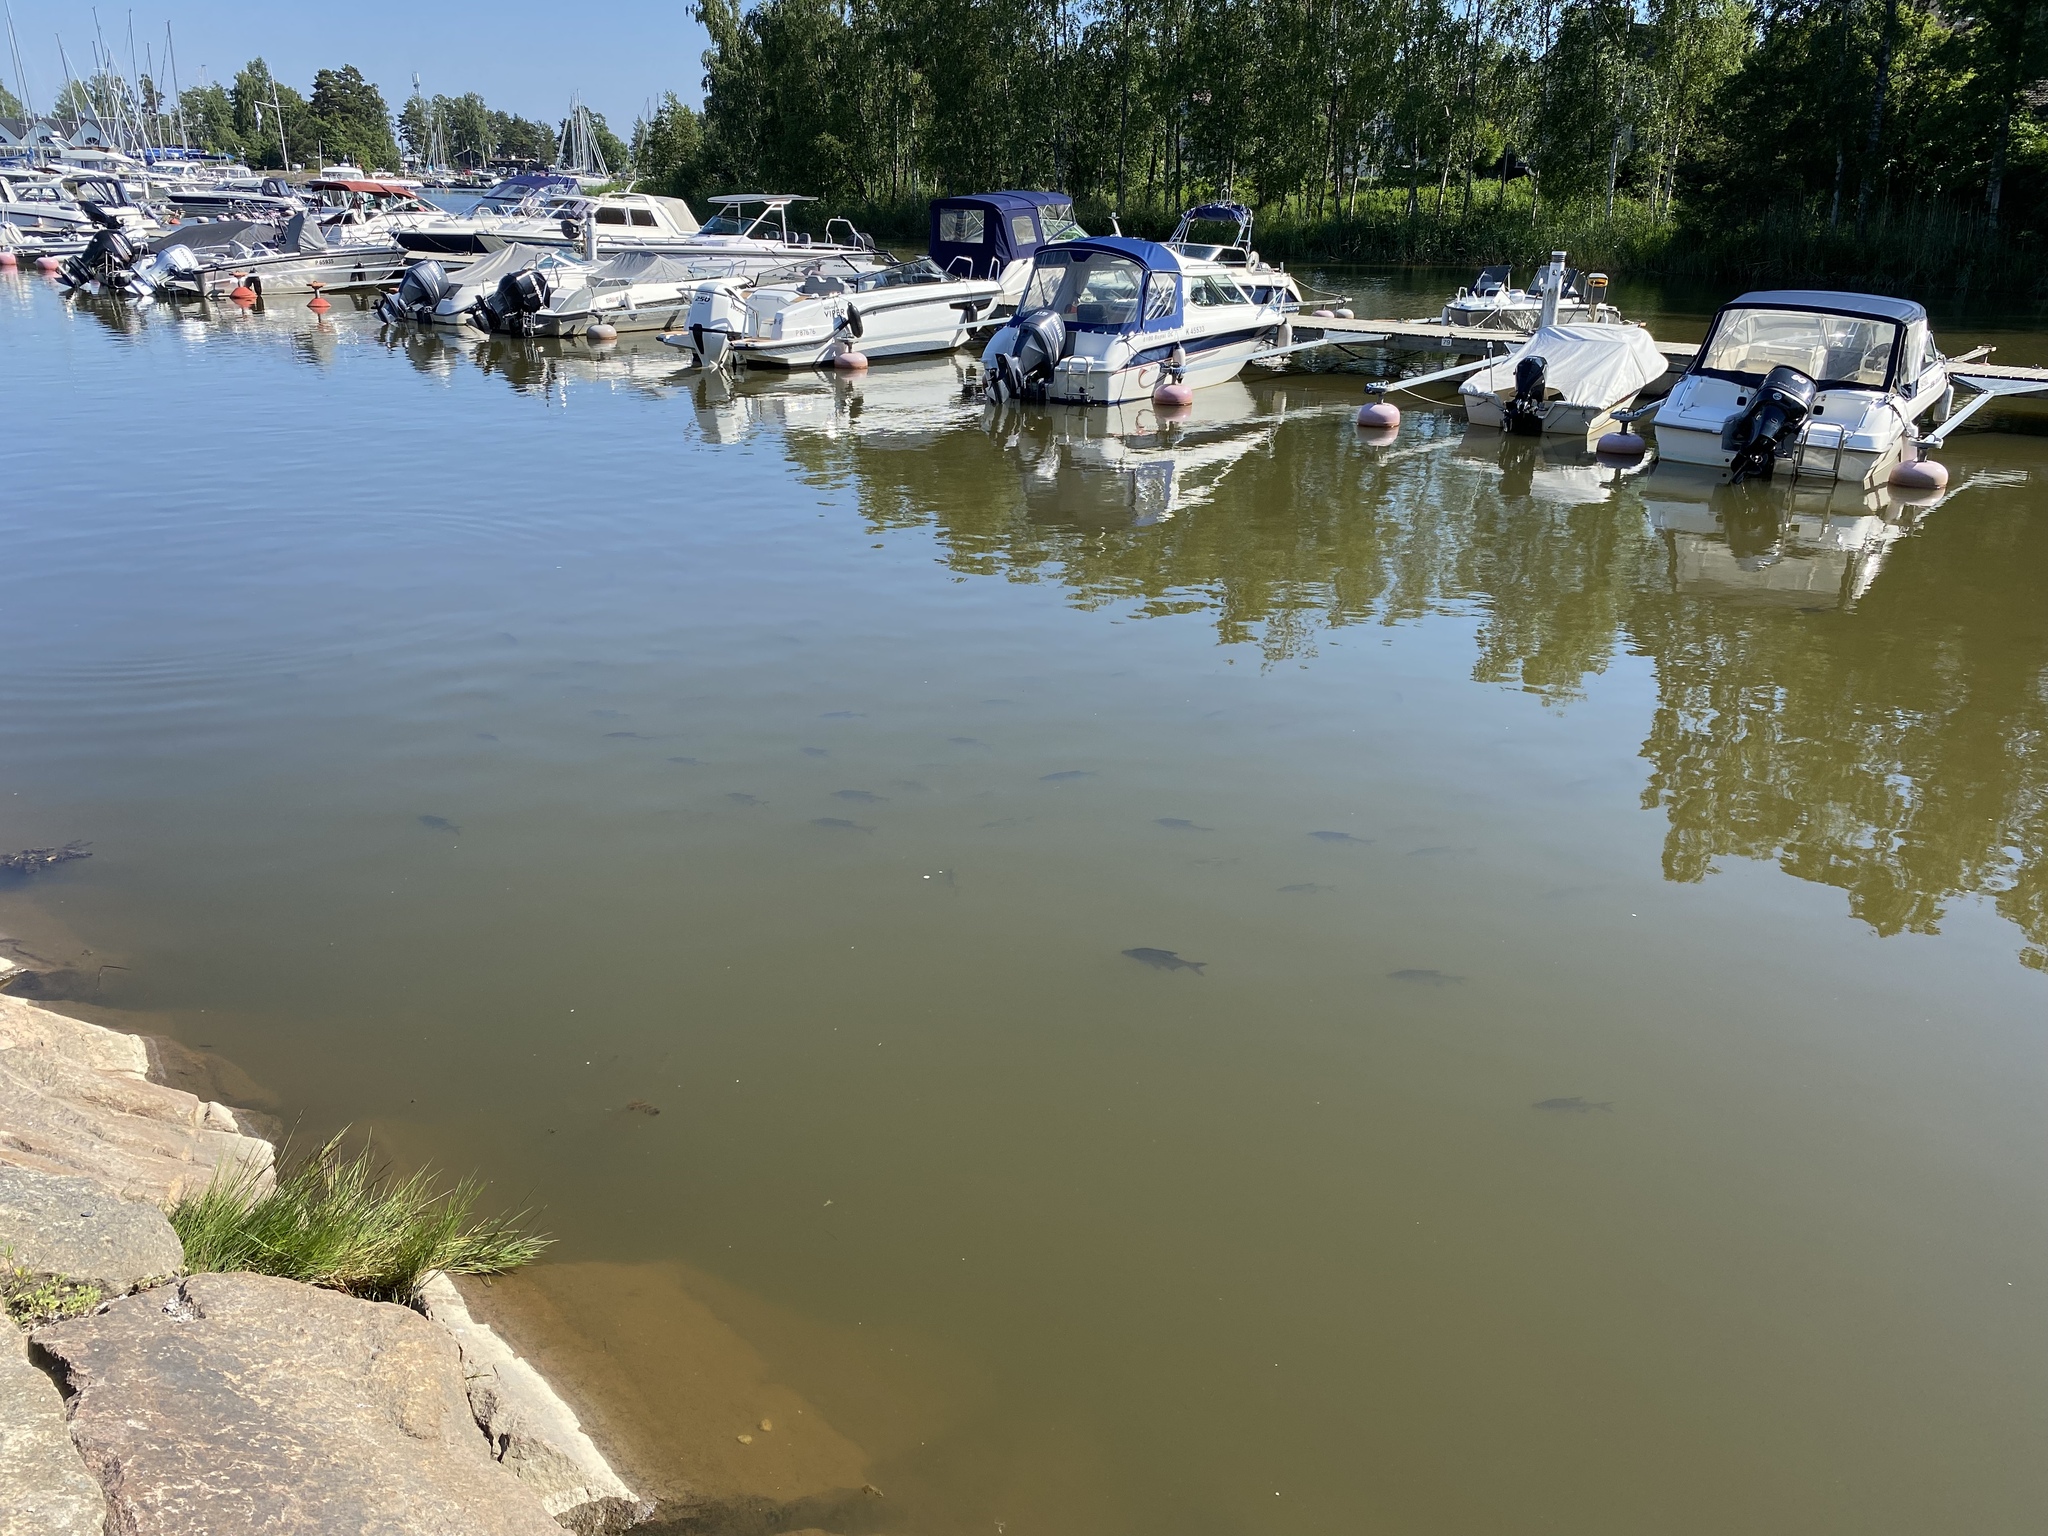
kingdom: Animalia
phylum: Chordata
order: Cypriniformes
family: Cyprinidae
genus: Abramis
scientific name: Abramis brama
